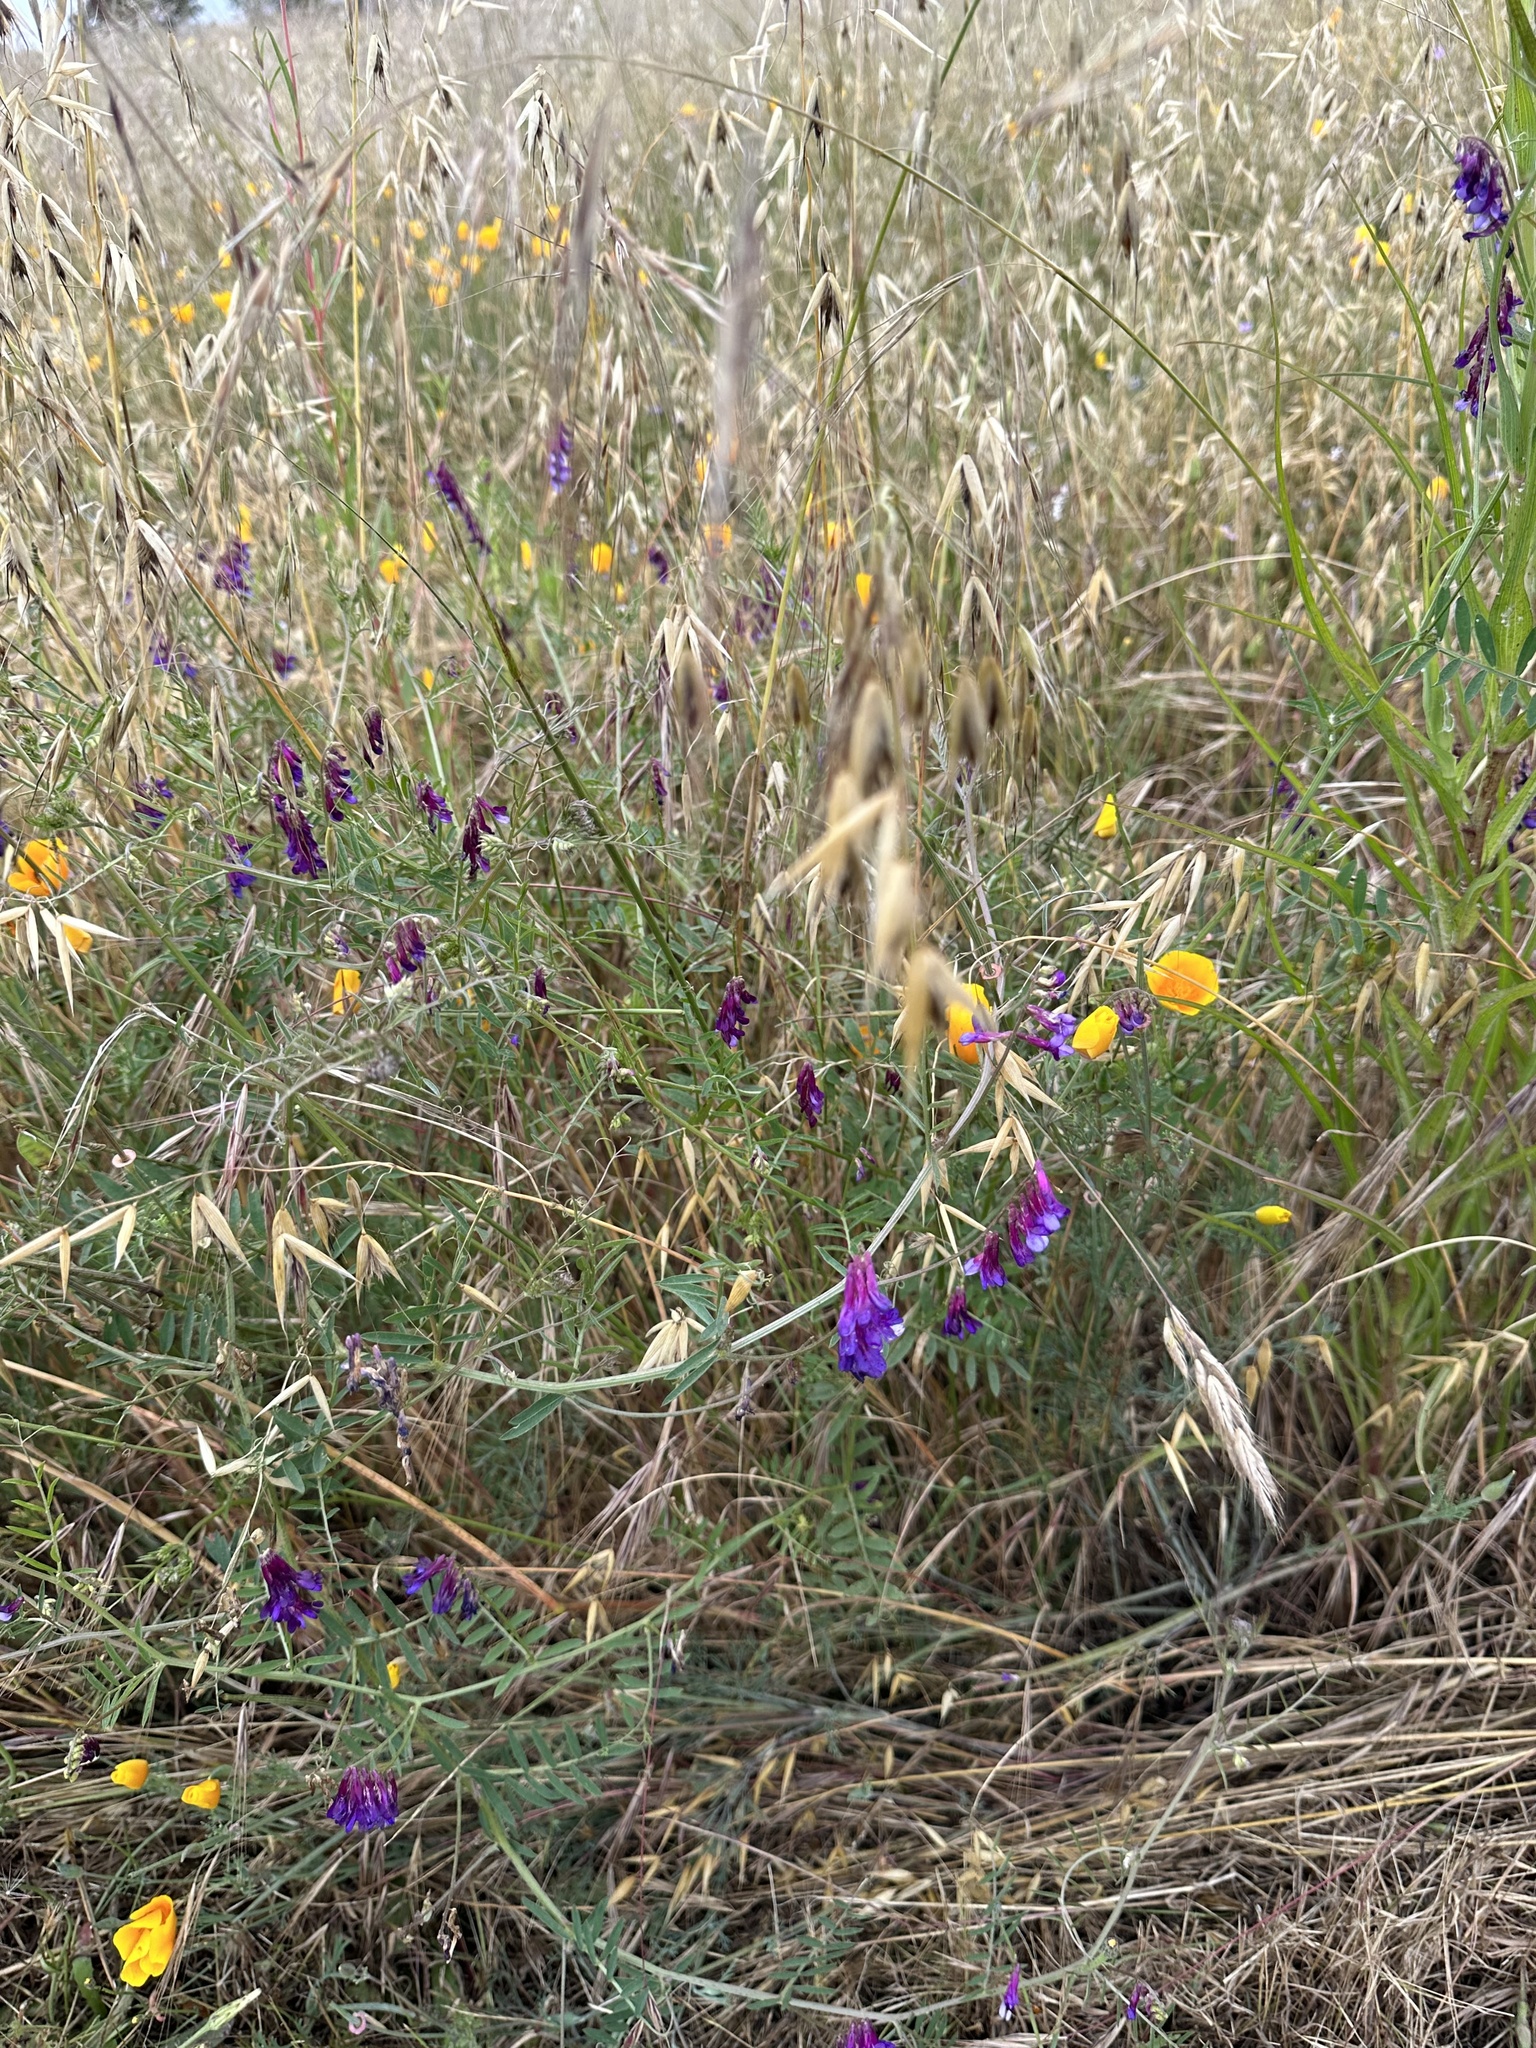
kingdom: Plantae
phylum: Tracheophyta
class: Magnoliopsida
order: Fabales
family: Fabaceae
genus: Vicia
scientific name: Vicia villosa
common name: Fodder vetch
